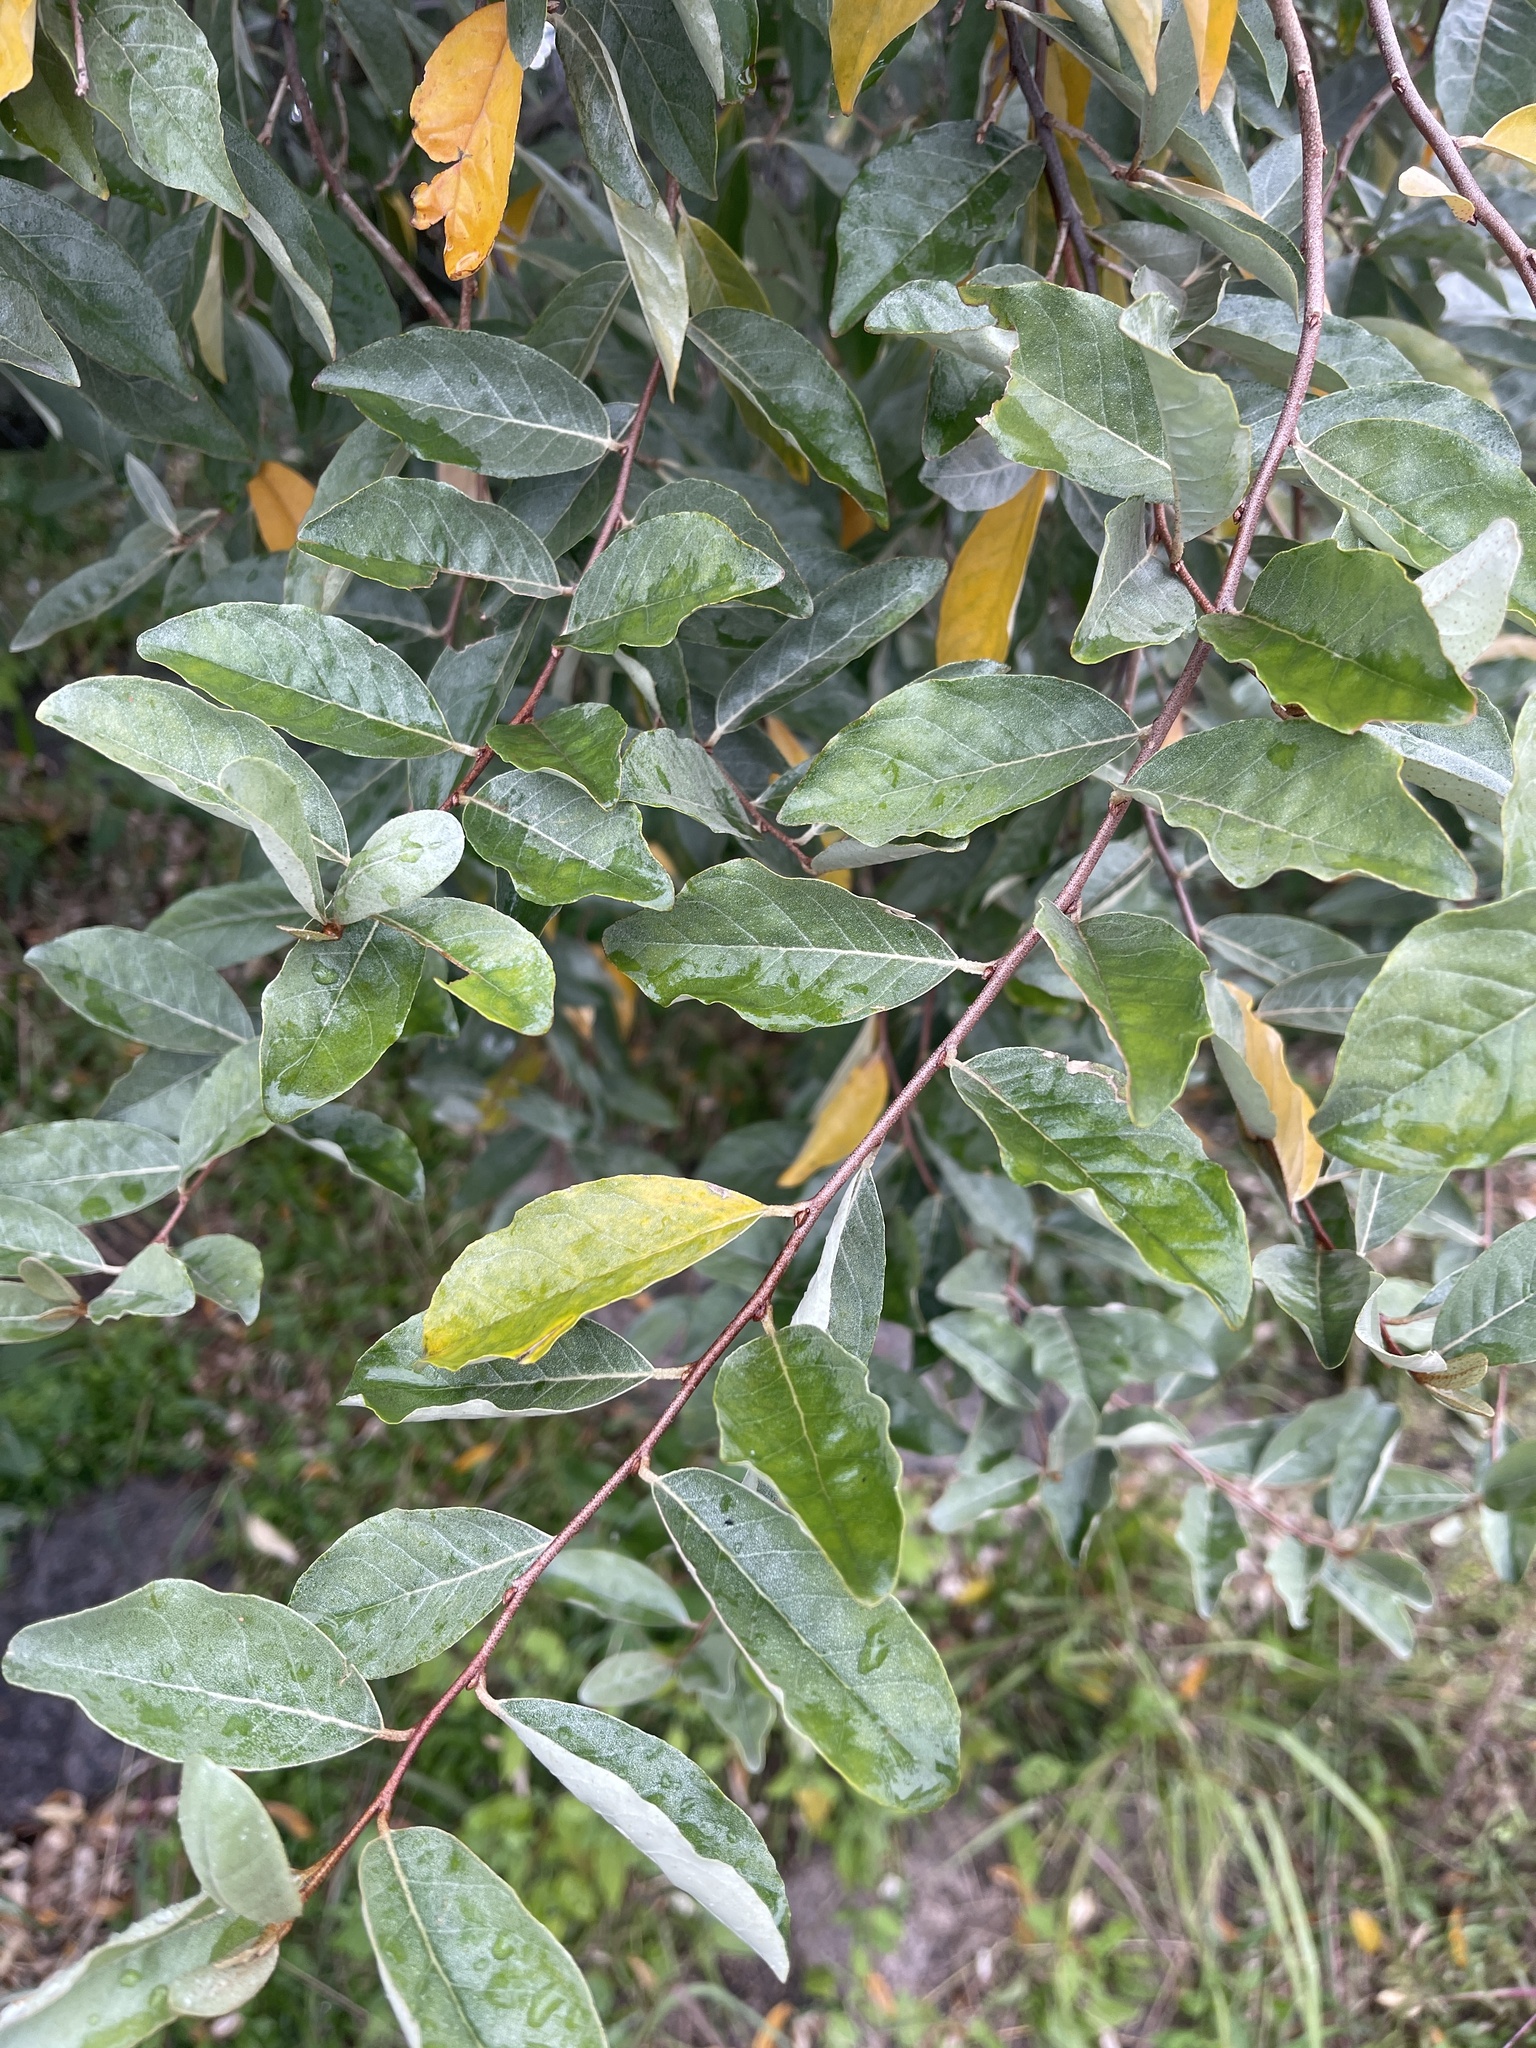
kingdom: Plantae
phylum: Tracheophyta
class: Magnoliopsida
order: Rosales
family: Elaeagnaceae
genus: Elaeagnus
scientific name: Elaeagnus umbellata
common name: Autumn olive
